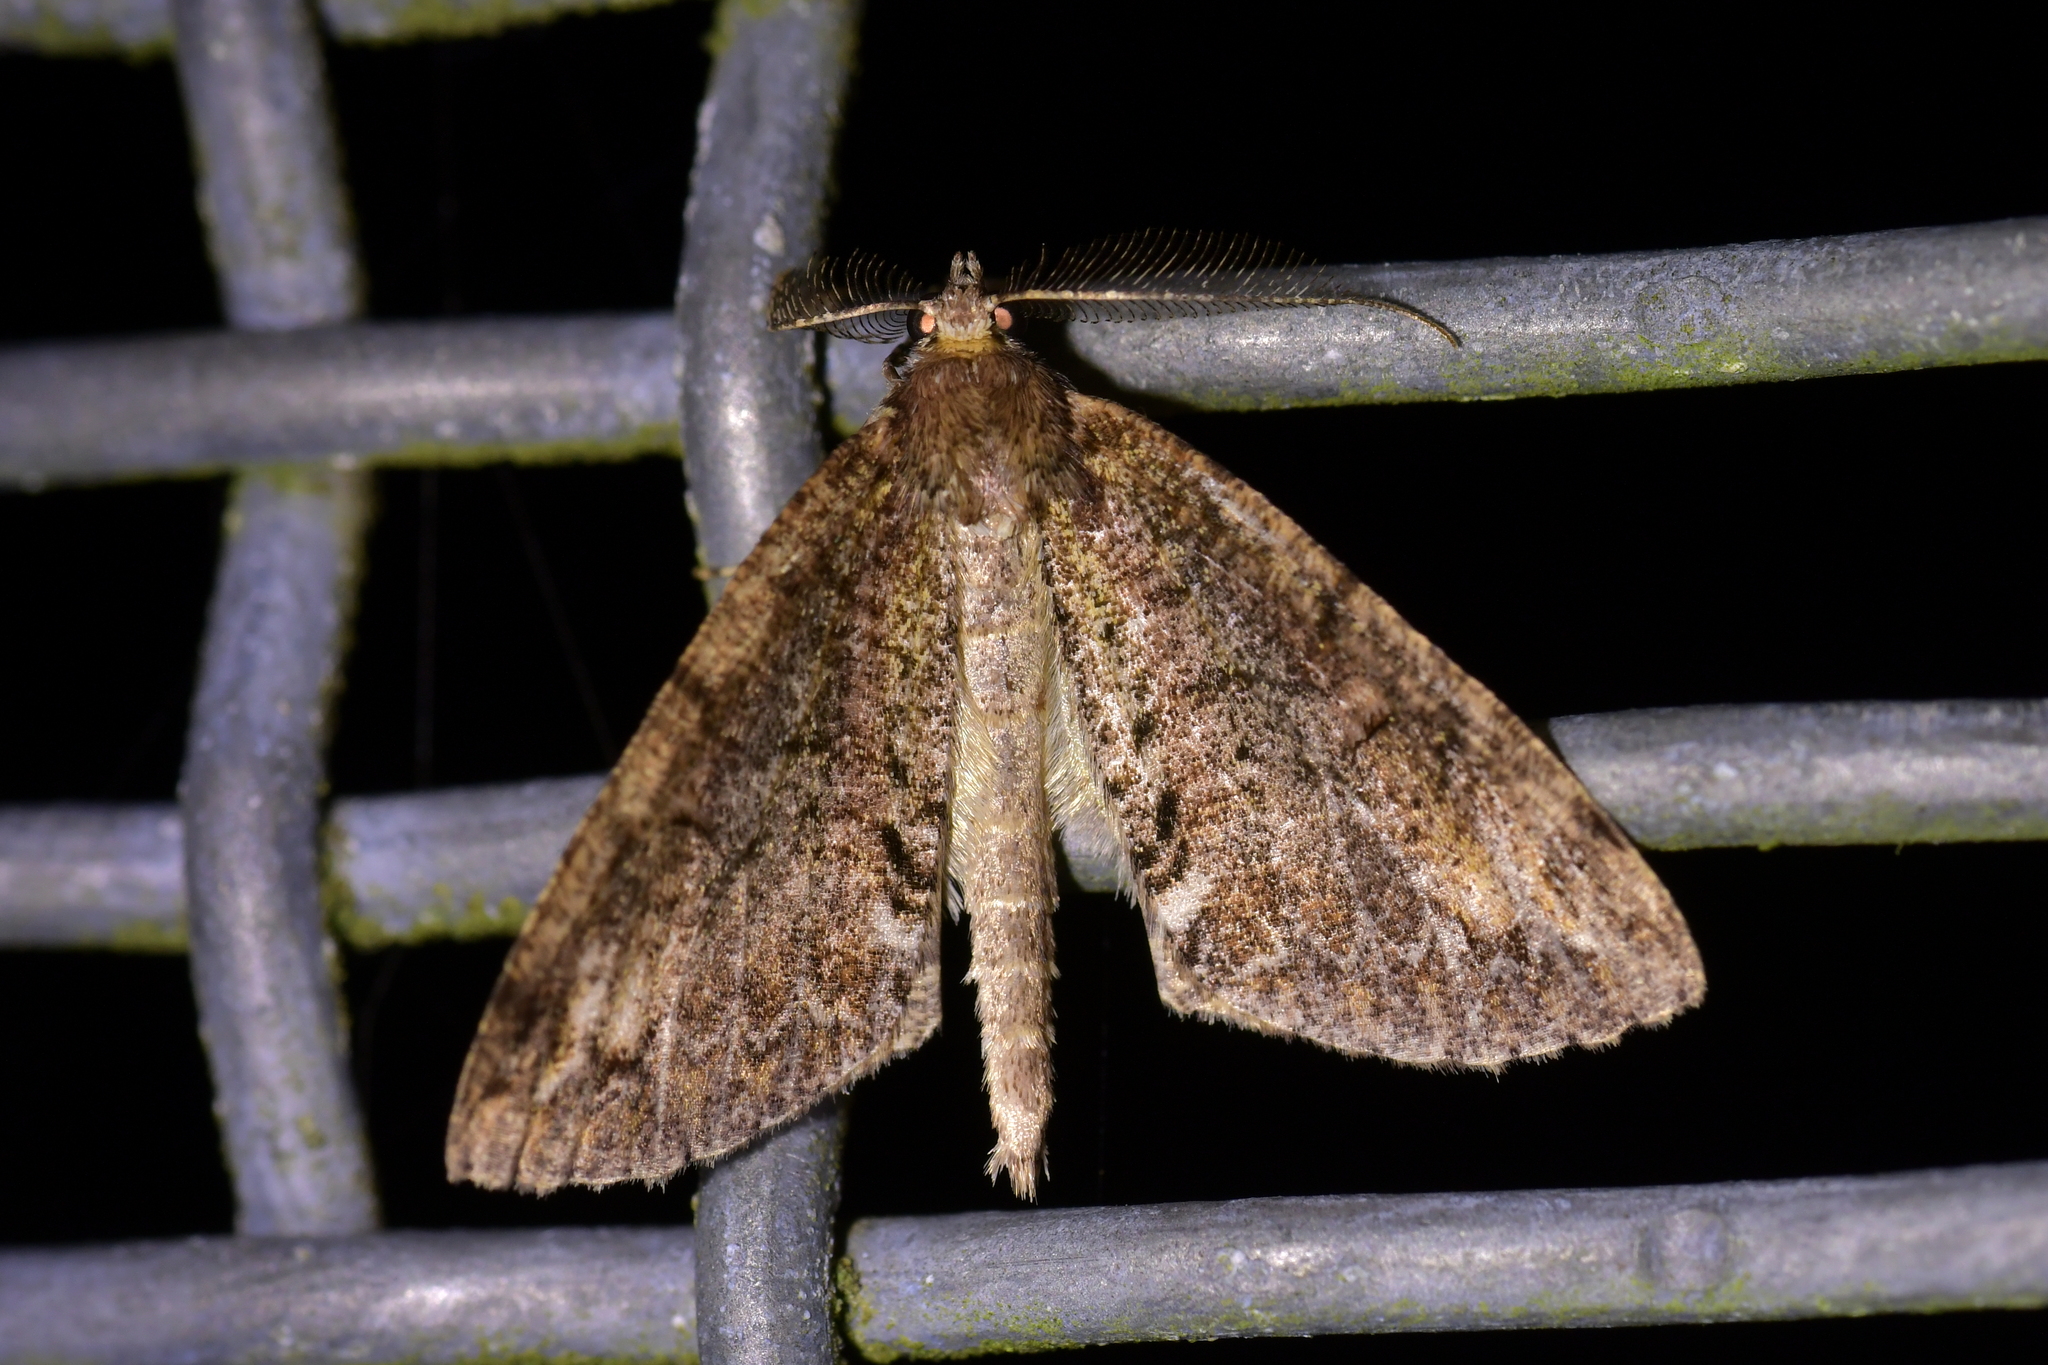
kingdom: Animalia
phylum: Arthropoda
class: Insecta
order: Lepidoptera
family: Geometridae
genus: Pseudocoremia
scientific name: Pseudocoremia suavis
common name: Common forest looper
